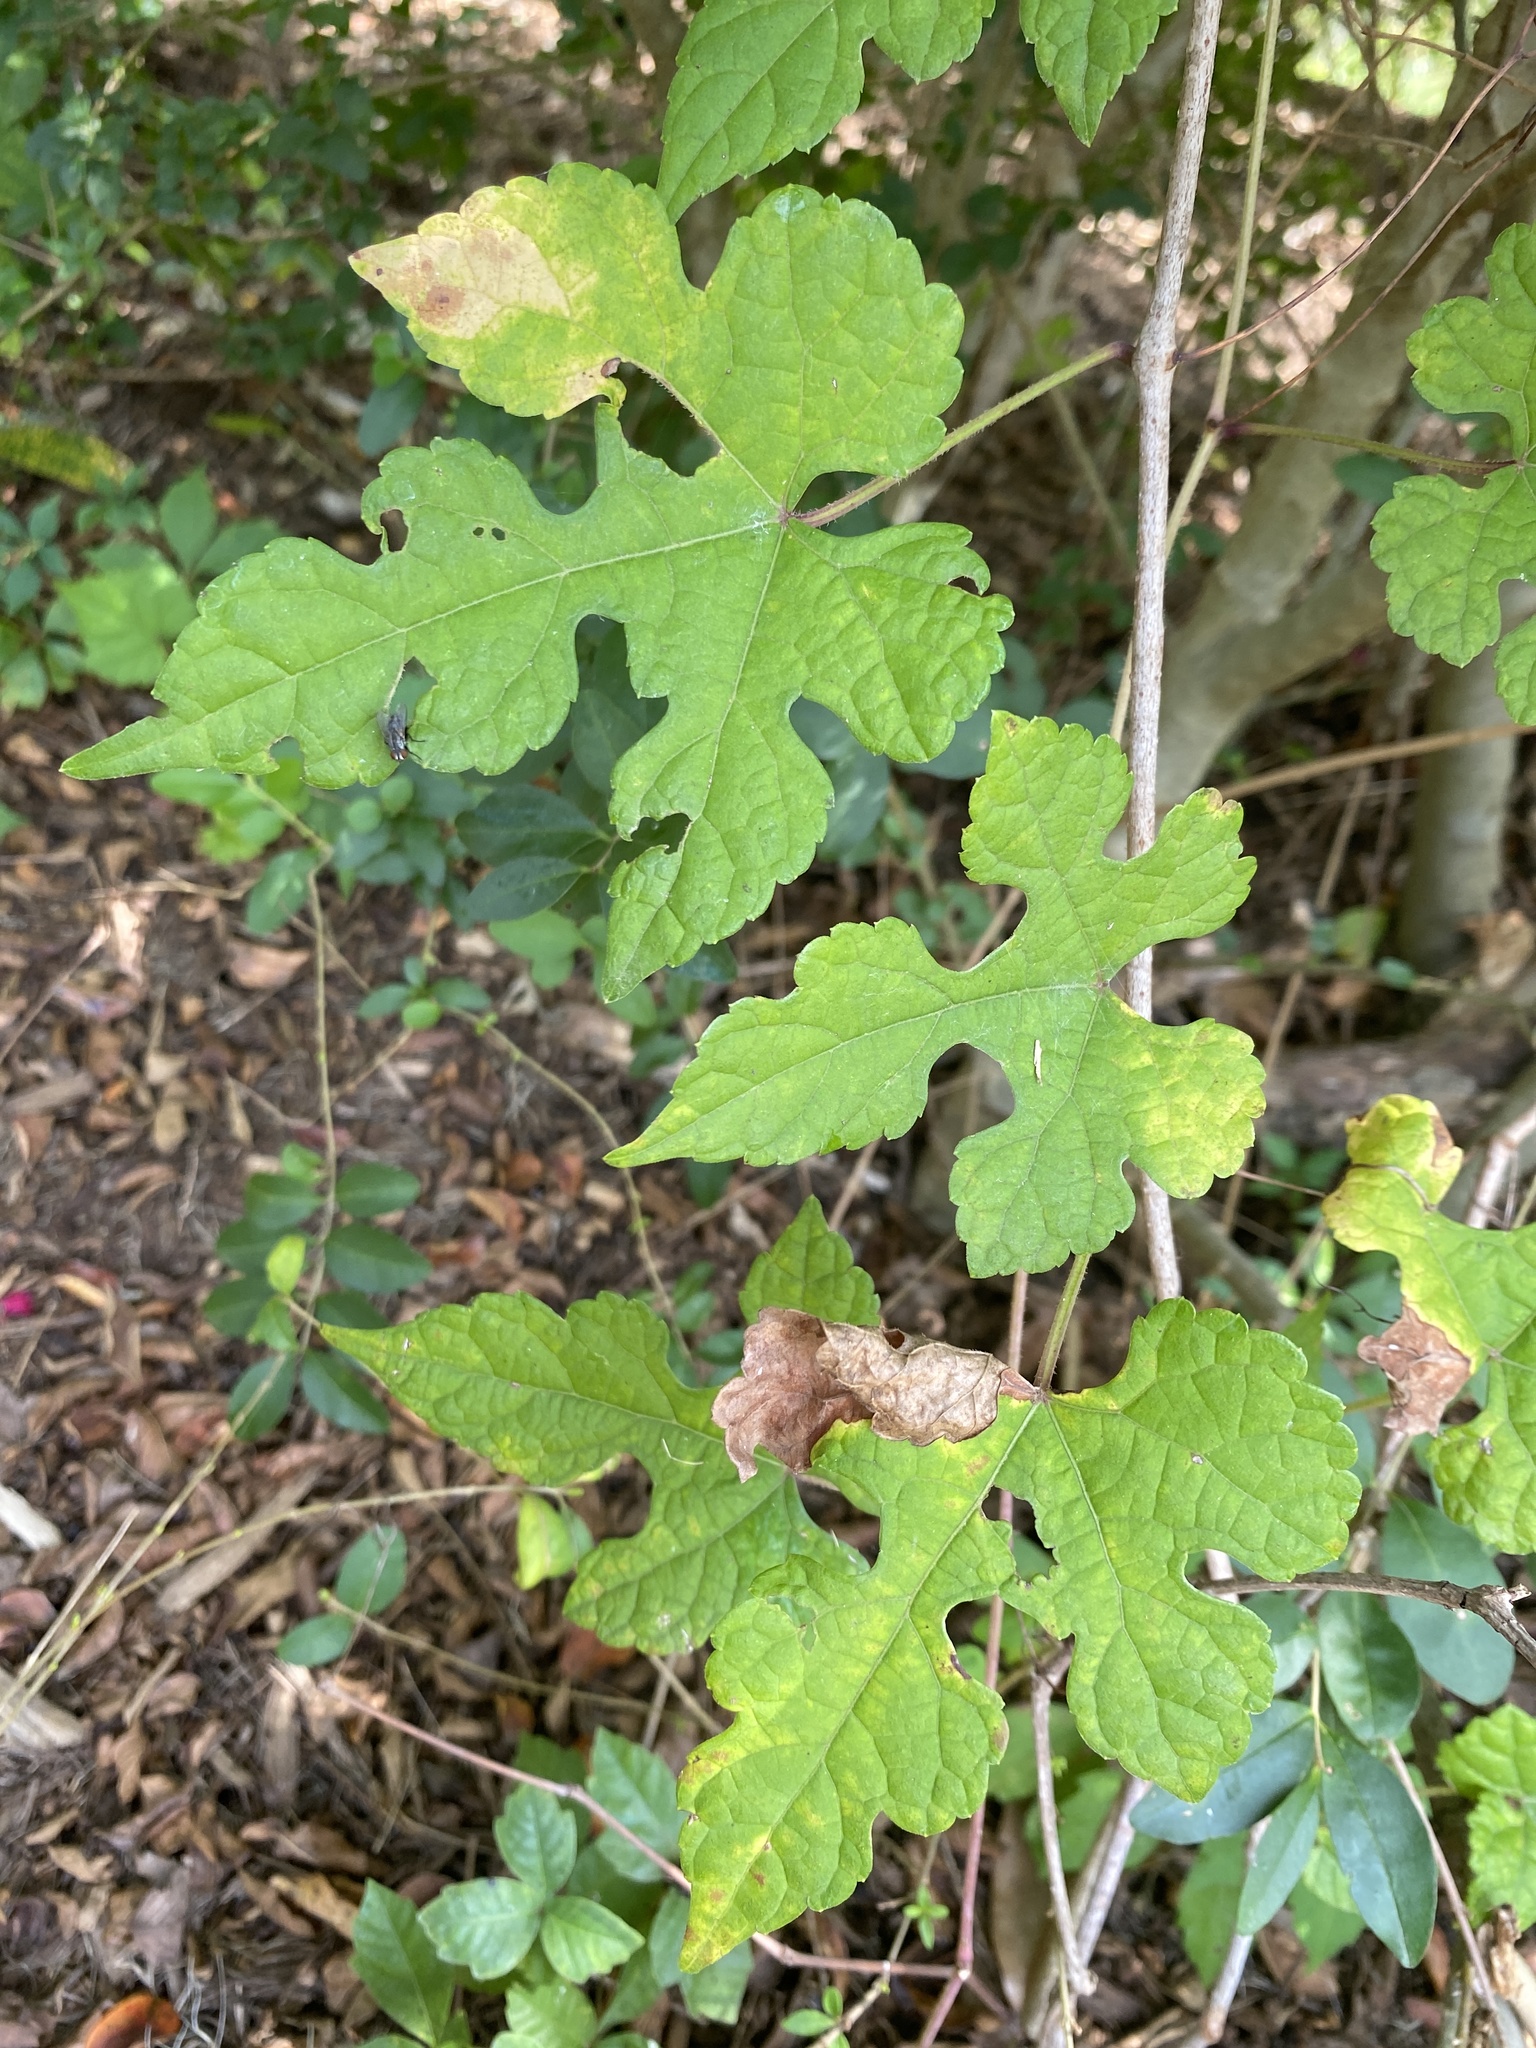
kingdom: Plantae
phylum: Tracheophyta
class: Magnoliopsida
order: Vitales
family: Vitaceae
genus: Ampelopsis
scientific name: Ampelopsis glandulosa
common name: Amur peppervine
